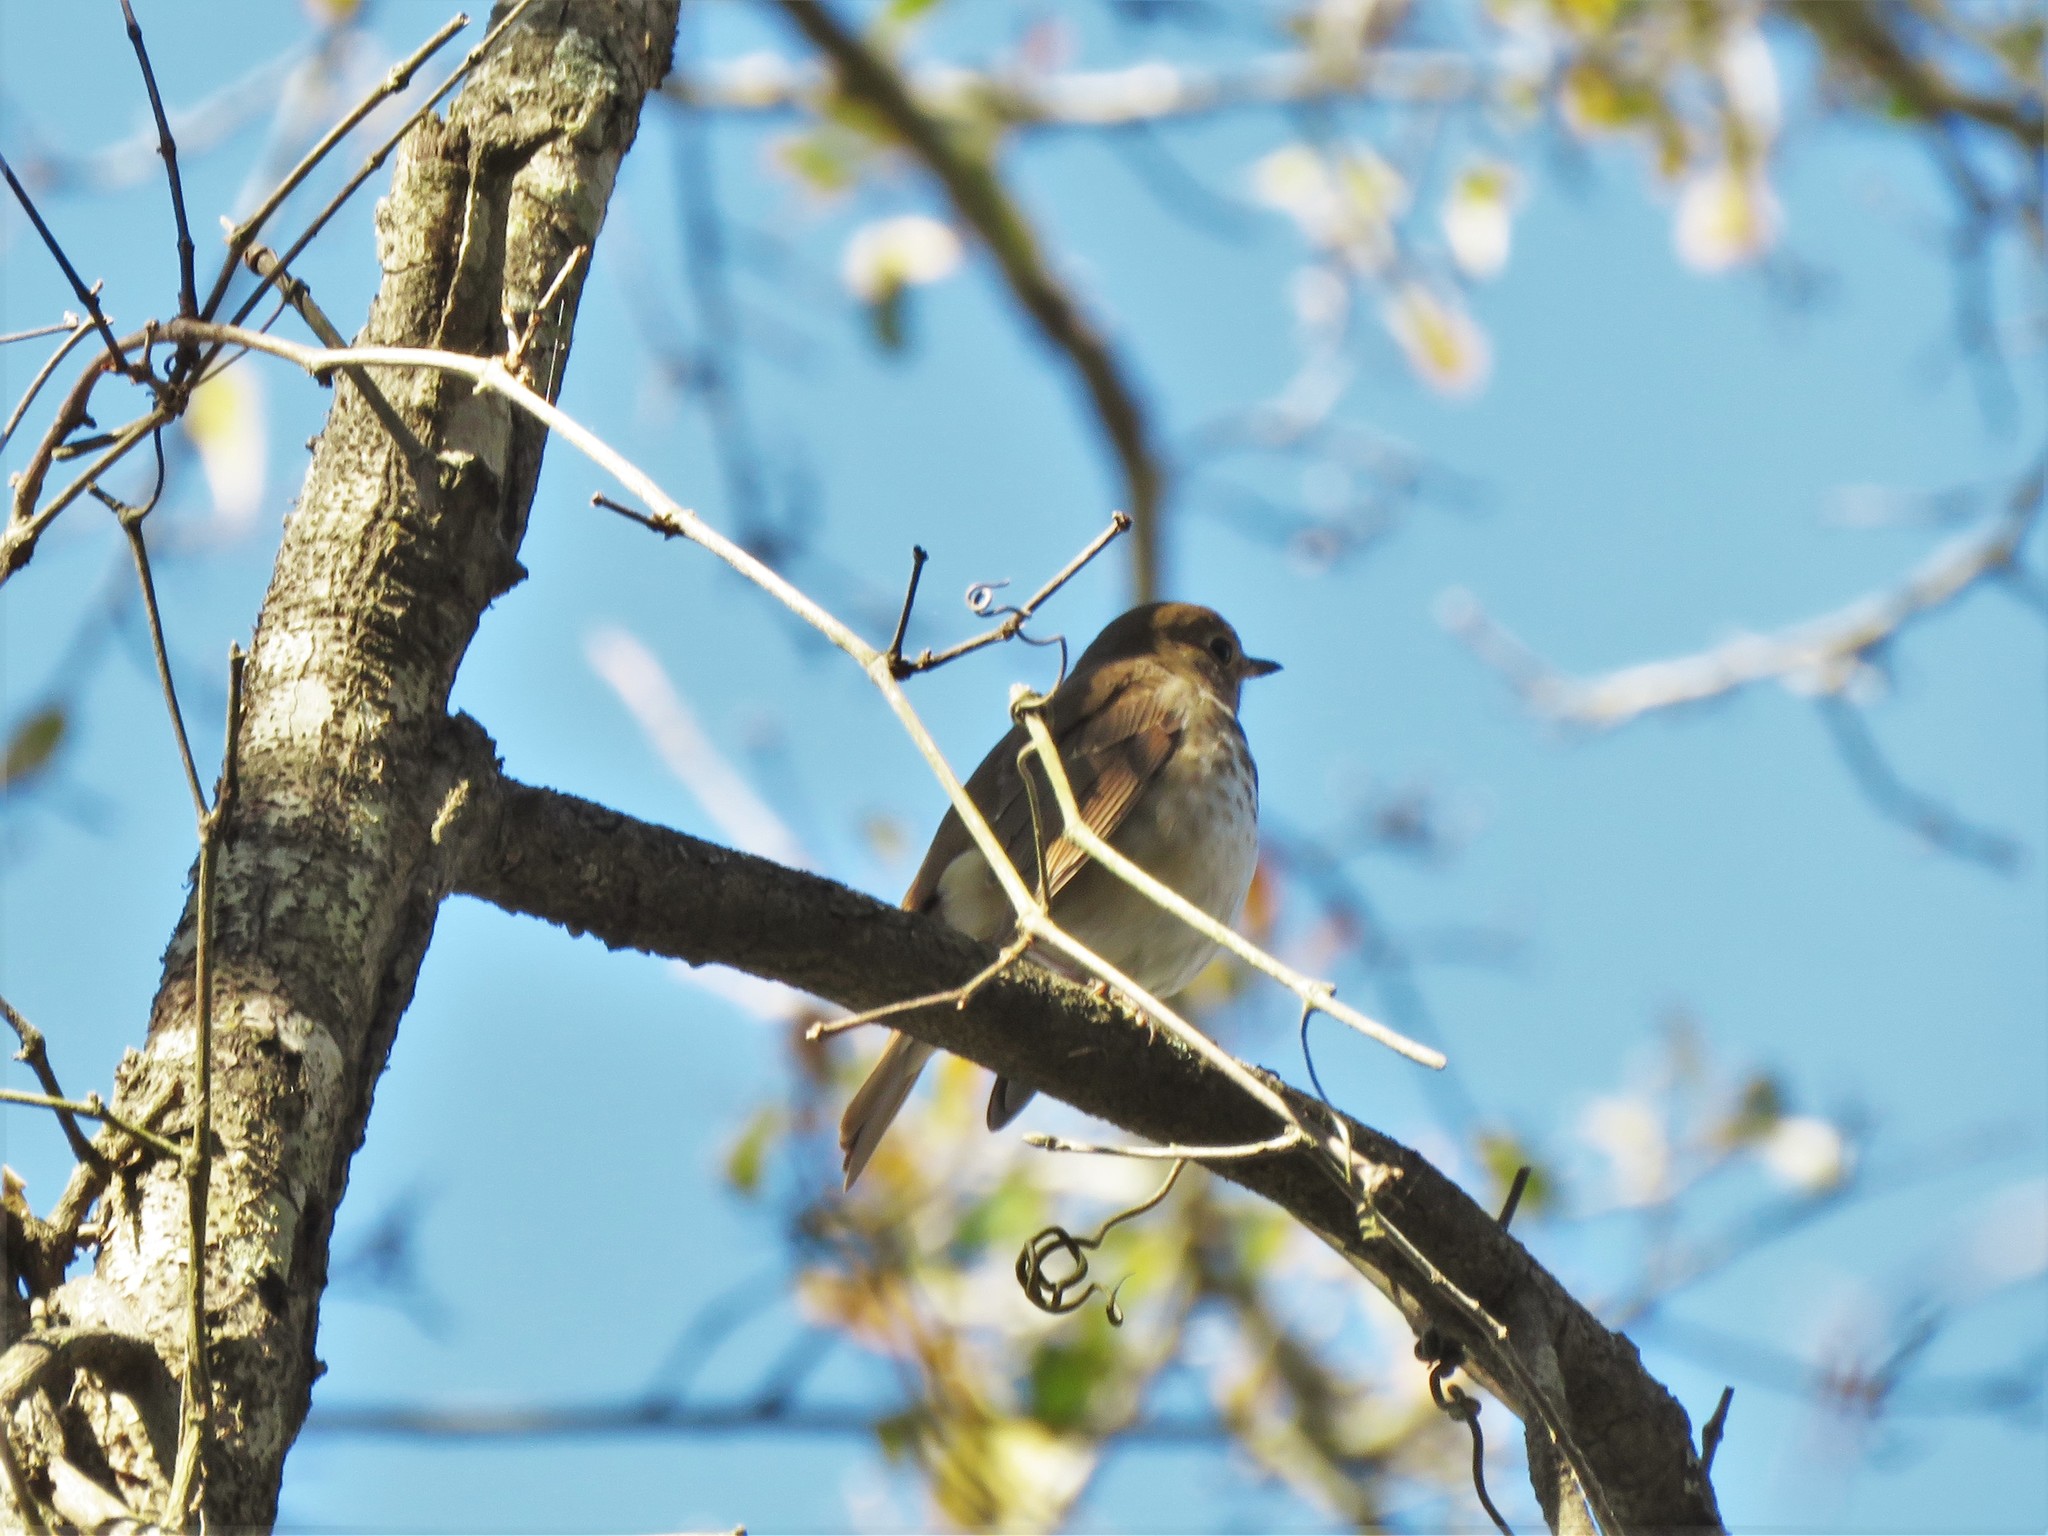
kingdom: Animalia
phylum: Chordata
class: Aves
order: Passeriformes
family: Turdidae
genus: Catharus
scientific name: Catharus guttatus
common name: Hermit thrush
